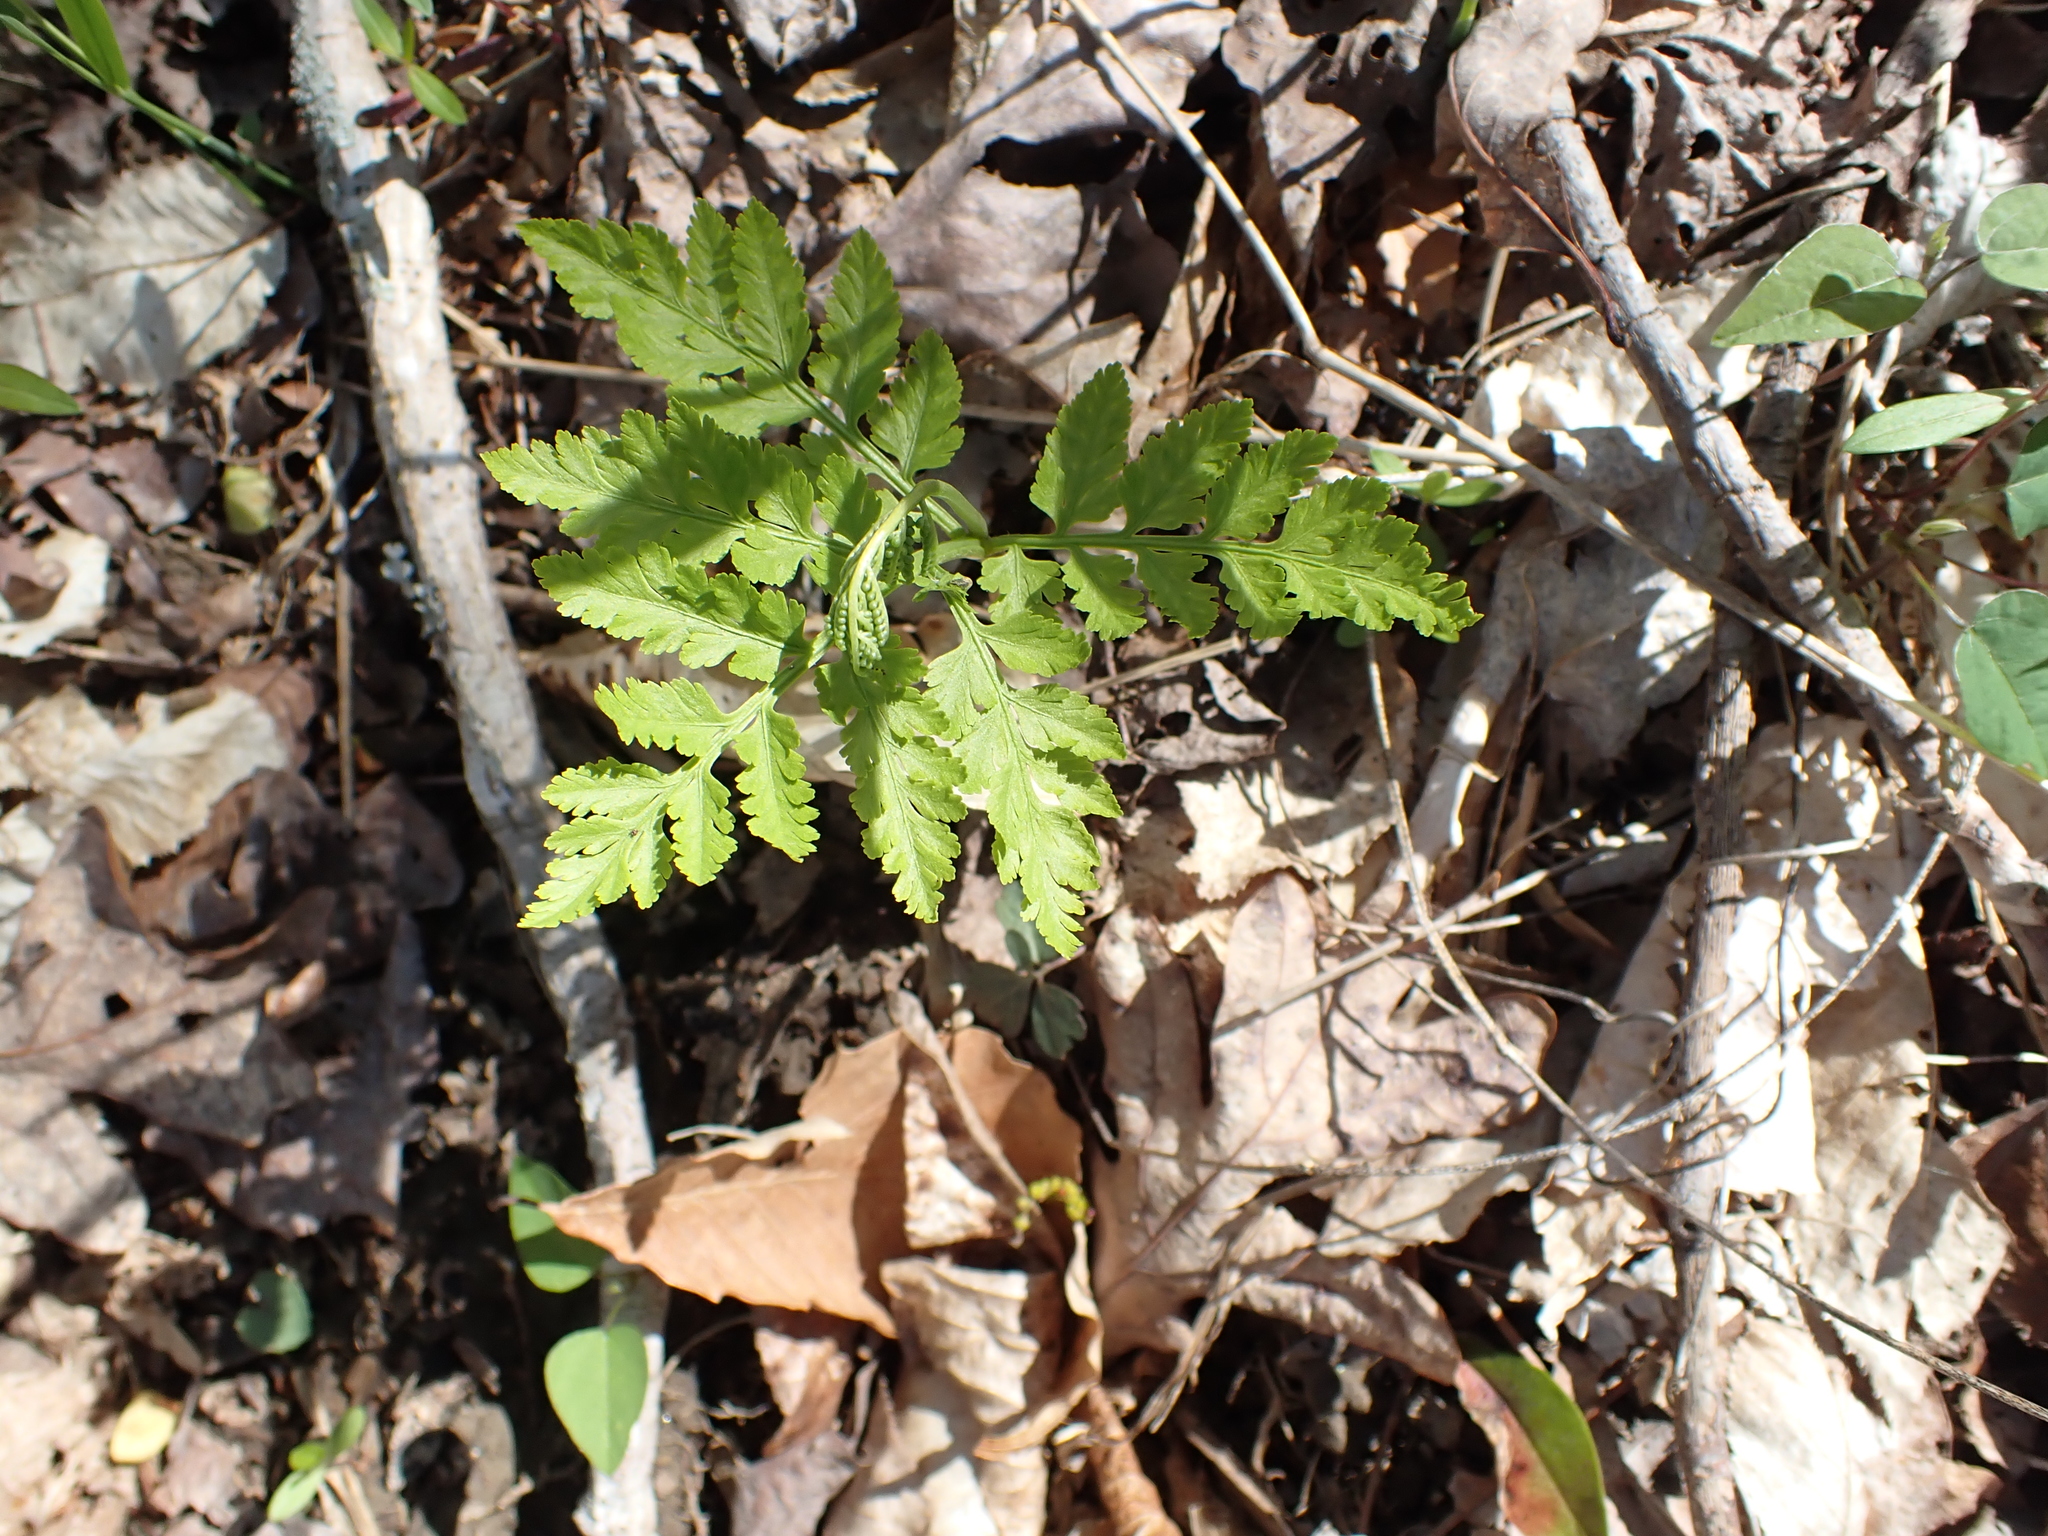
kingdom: Plantae
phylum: Tracheophyta
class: Polypodiopsida
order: Ophioglossales
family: Ophioglossaceae
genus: Botrypus
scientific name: Botrypus virginianus
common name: Common grapefern
